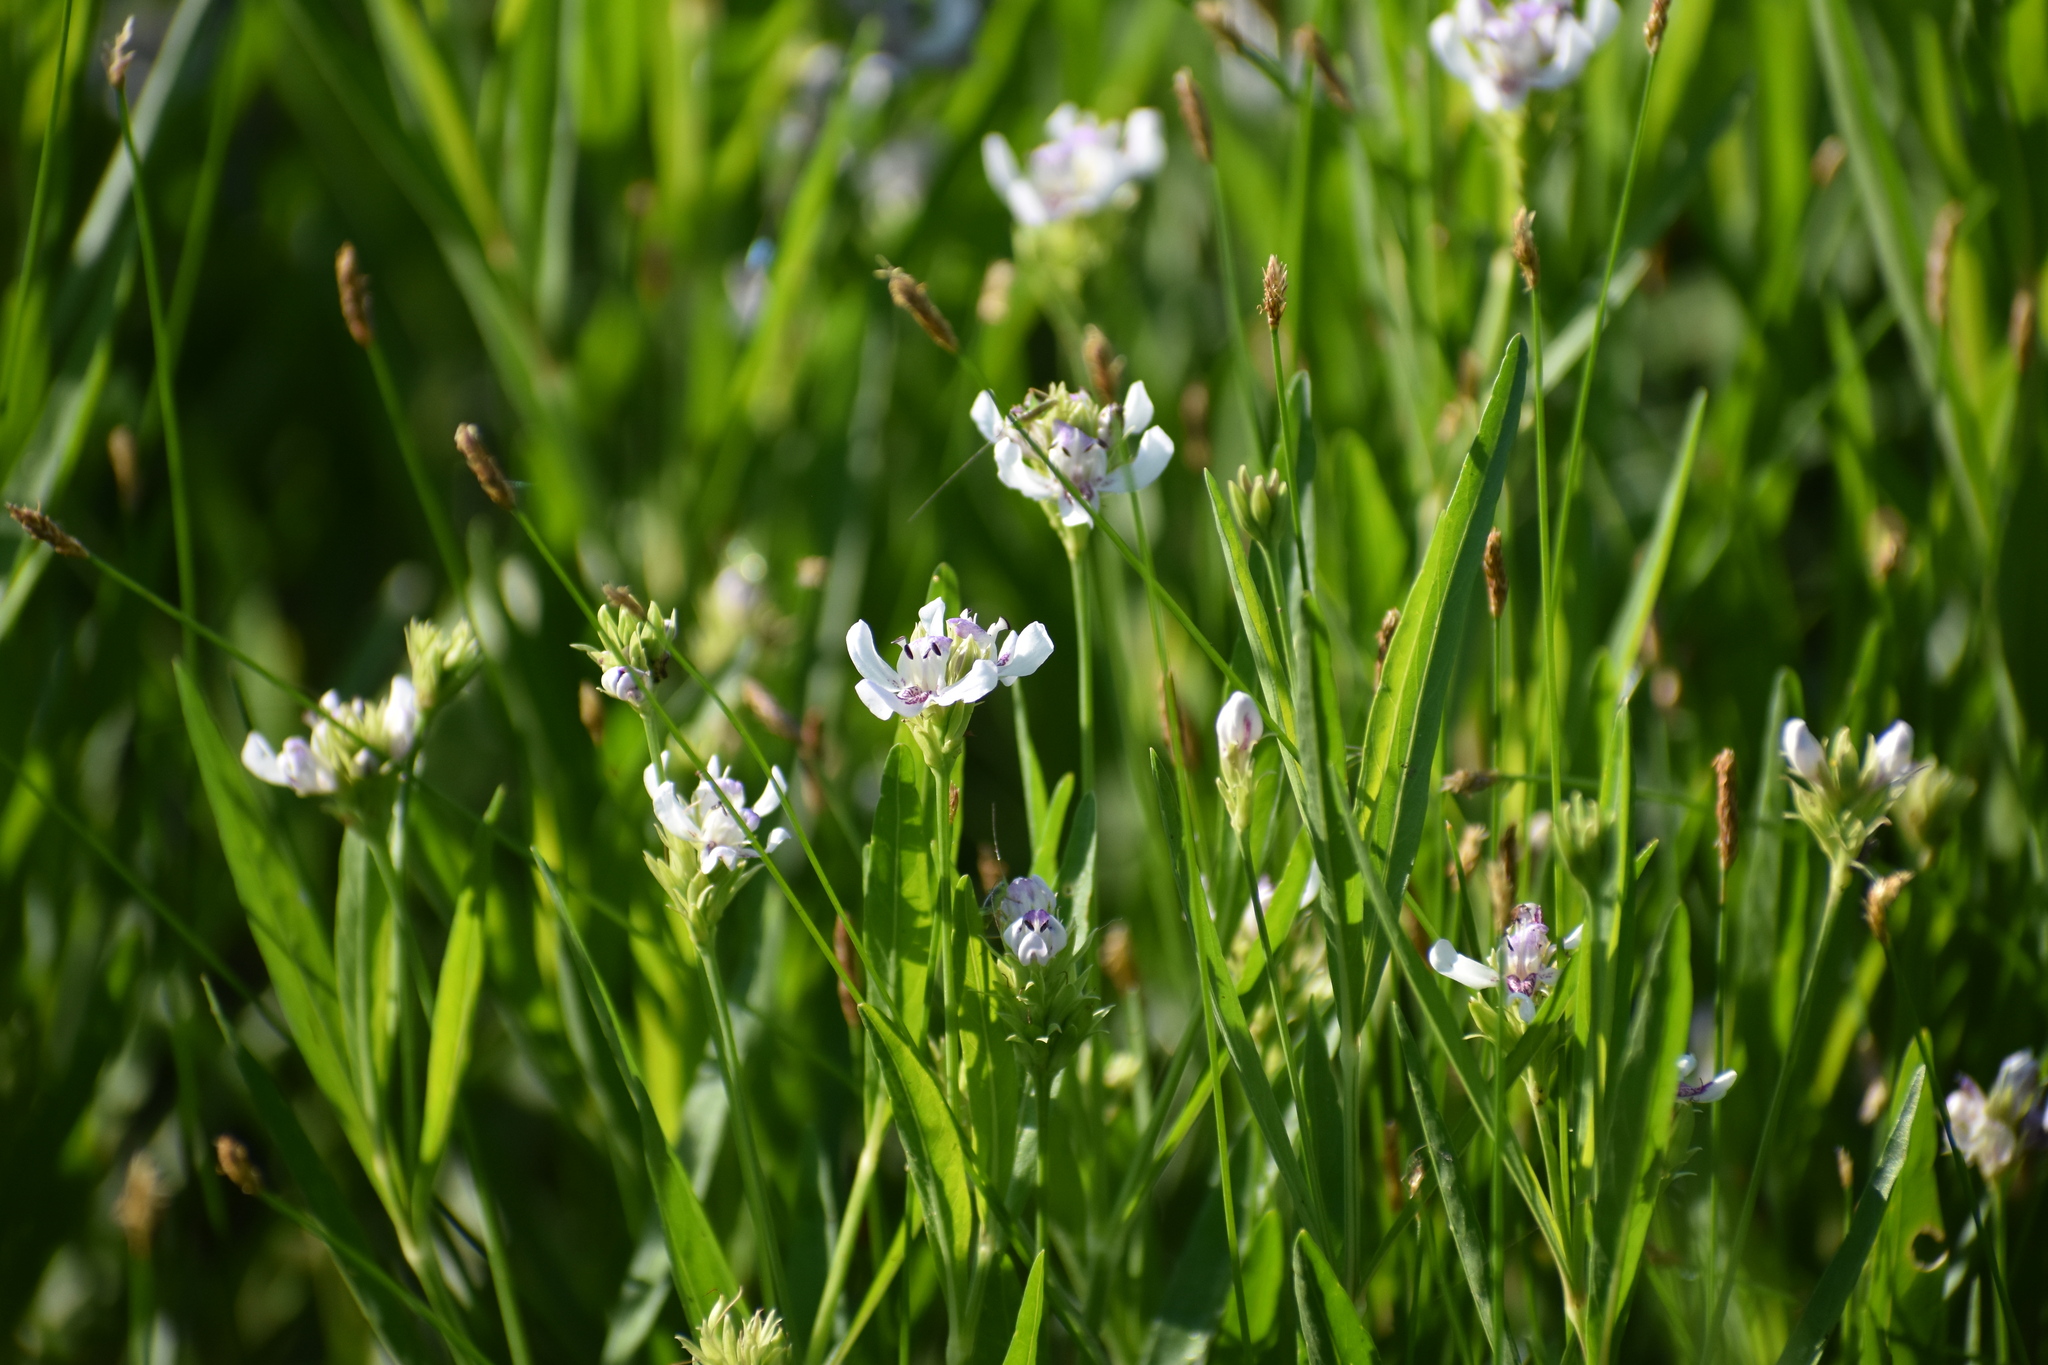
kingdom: Plantae
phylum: Tracheophyta
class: Magnoliopsida
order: Lamiales
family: Acanthaceae
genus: Dianthera
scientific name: Dianthera americana
